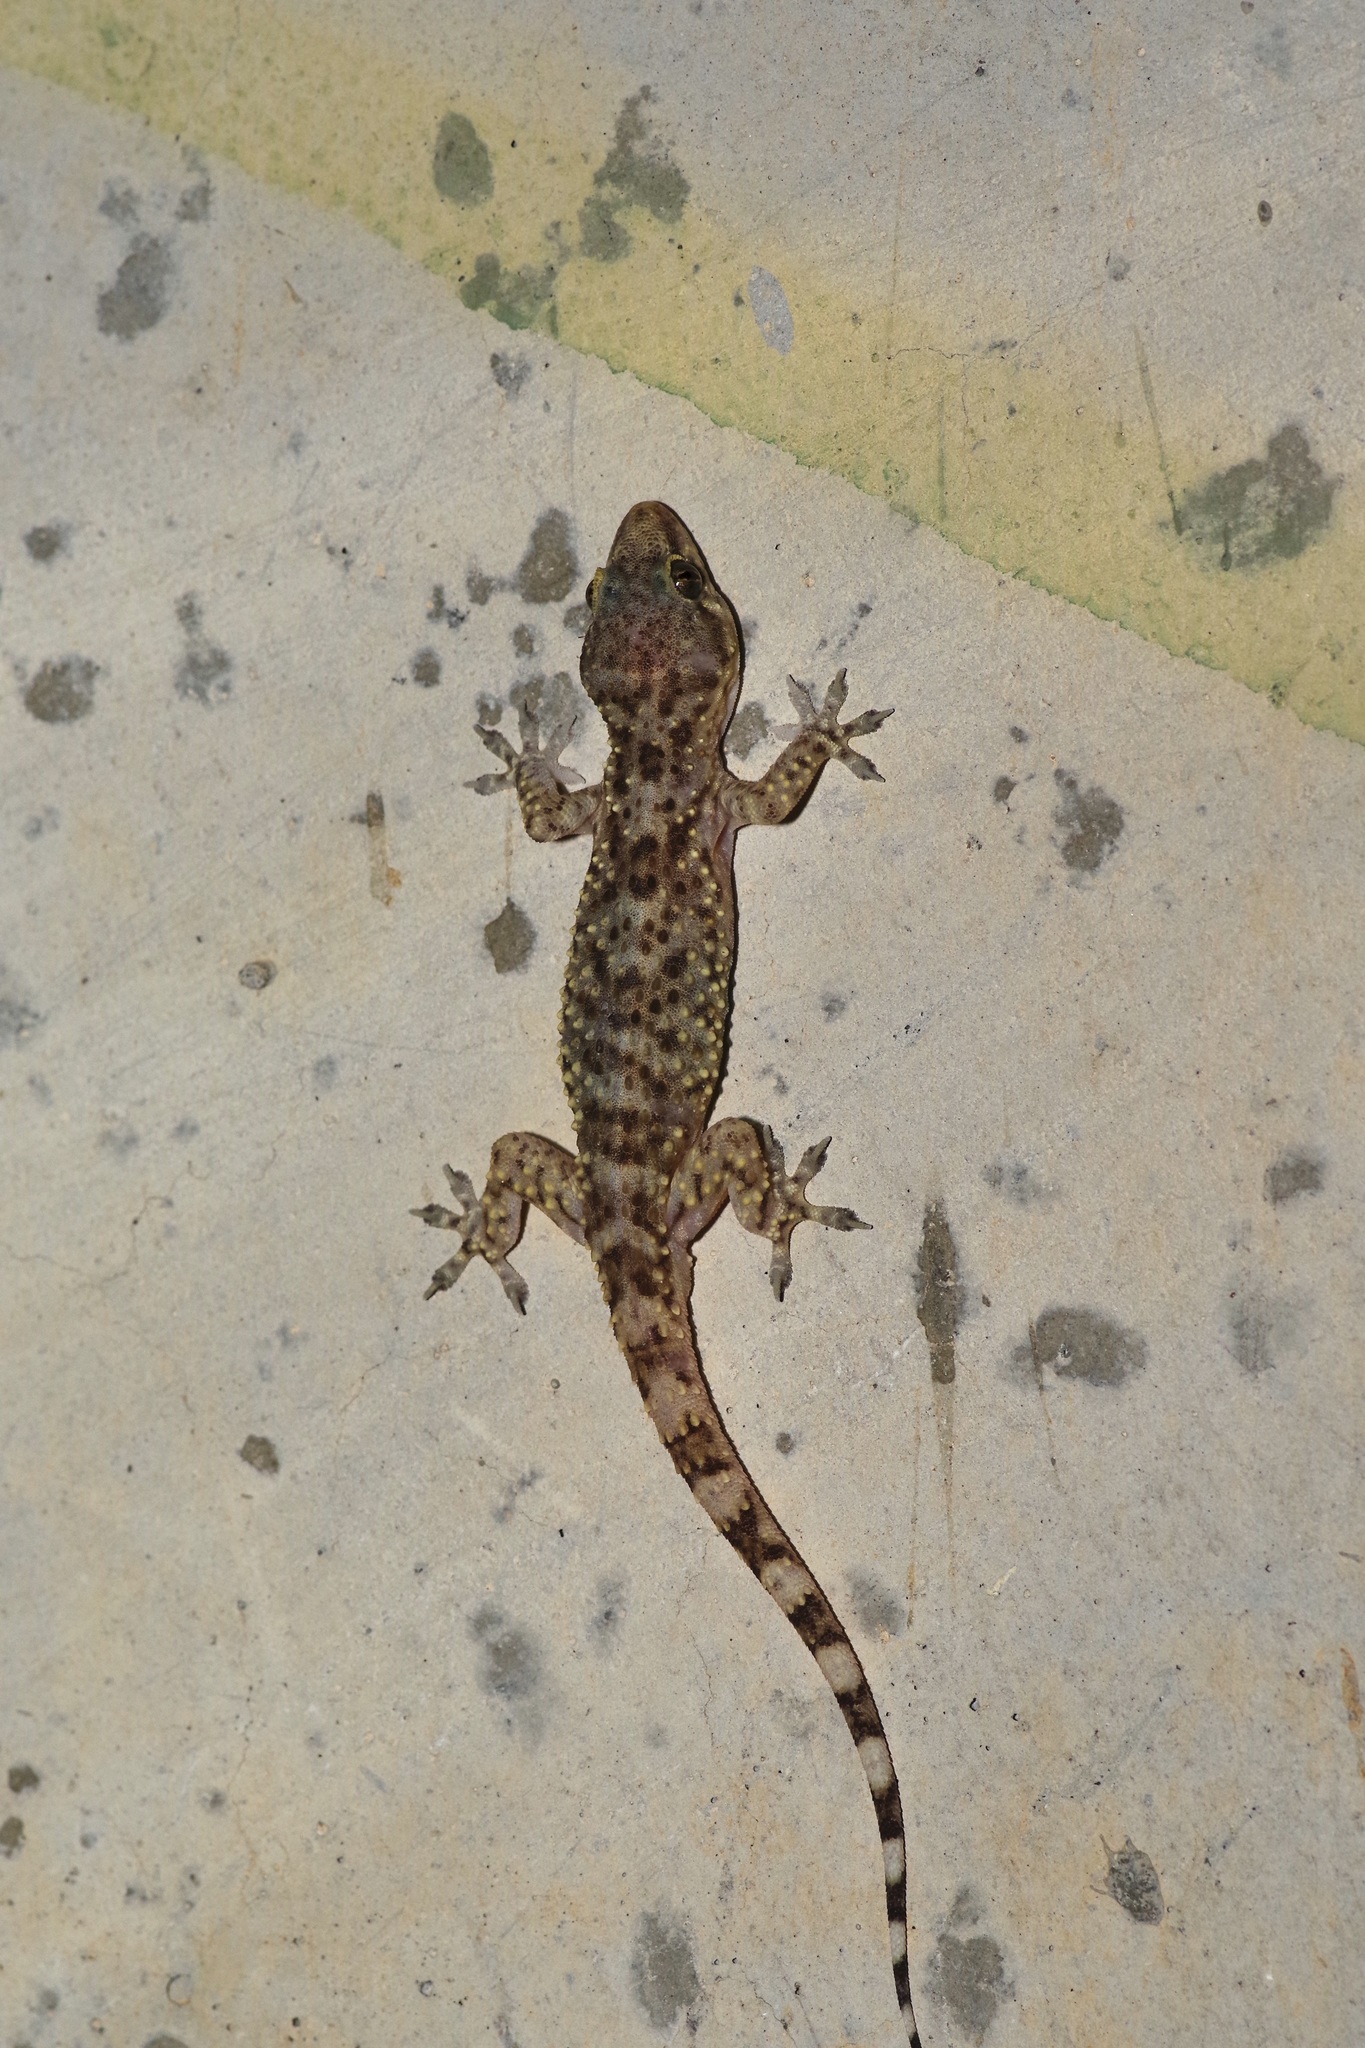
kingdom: Animalia
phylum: Chordata
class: Squamata
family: Gekkonidae
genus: Hemidactylus
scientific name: Hemidactylus turcicus
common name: Turkish gecko
